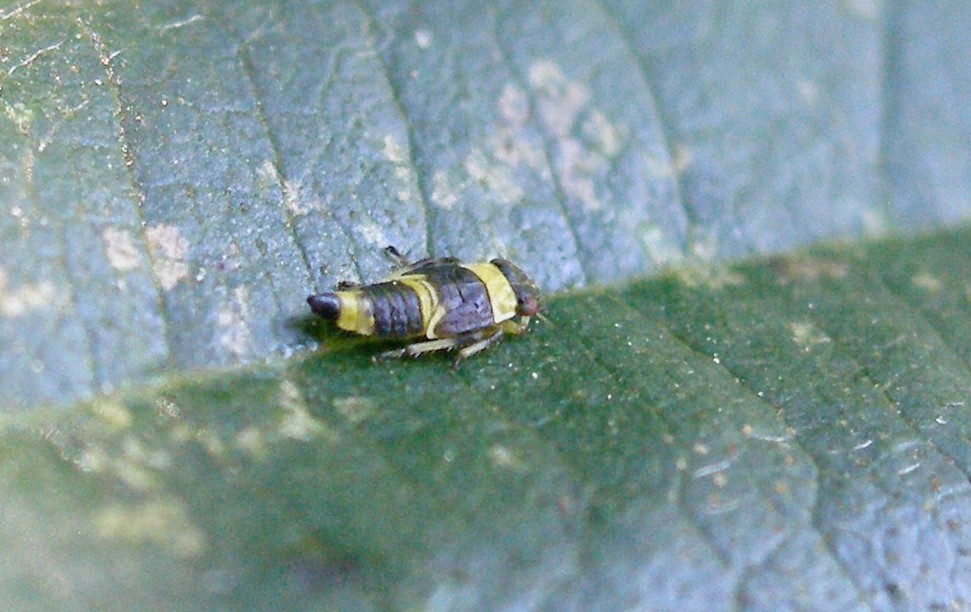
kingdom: Animalia
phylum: Arthropoda
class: Insecta
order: Hemiptera
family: Cicadellidae
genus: Eupterycyba
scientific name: Eupterycyba jucunda
